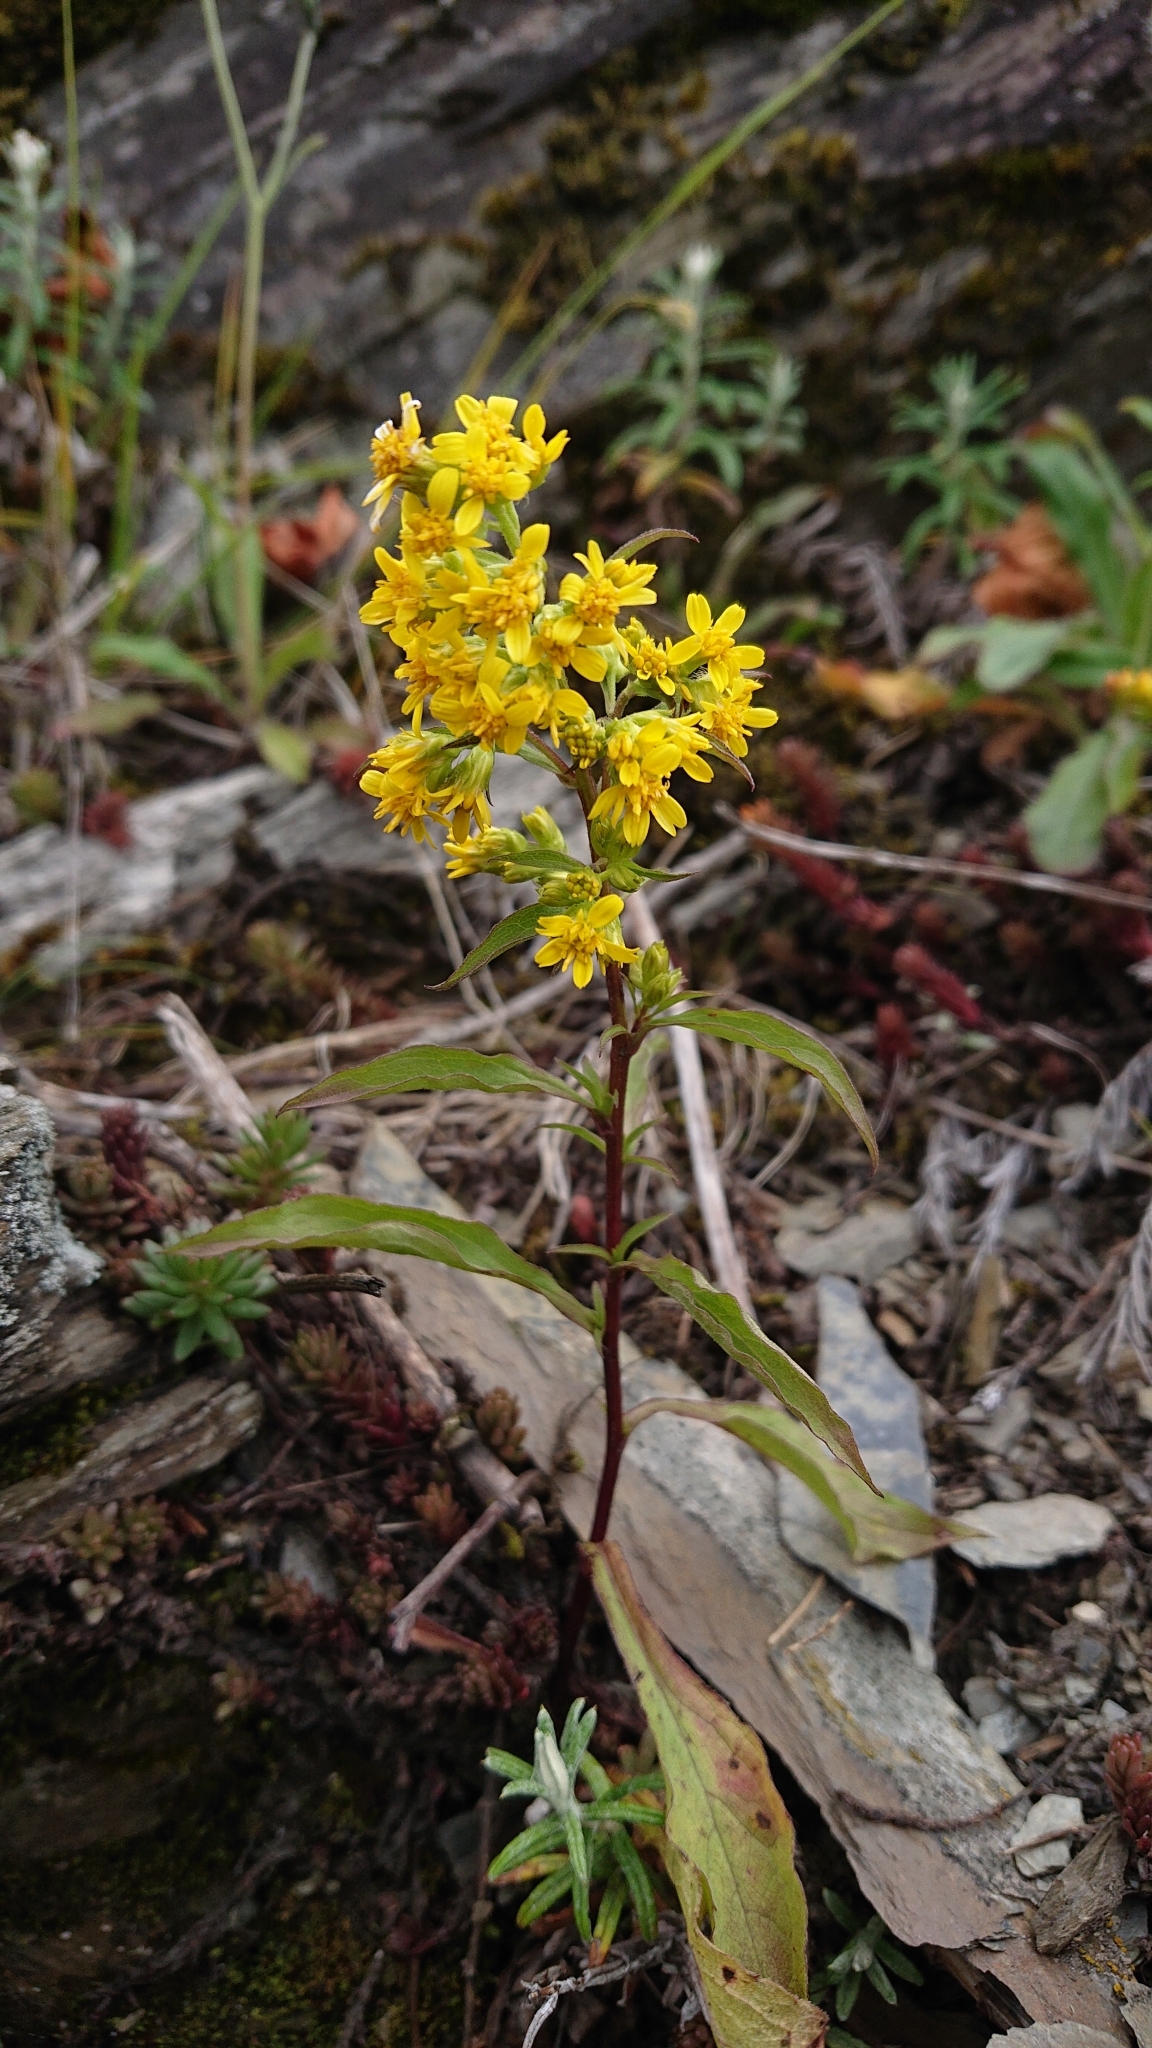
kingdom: Plantae
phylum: Tracheophyta
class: Magnoliopsida
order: Asterales
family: Asteraceae
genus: Solidago
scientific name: Solidago decurrens
